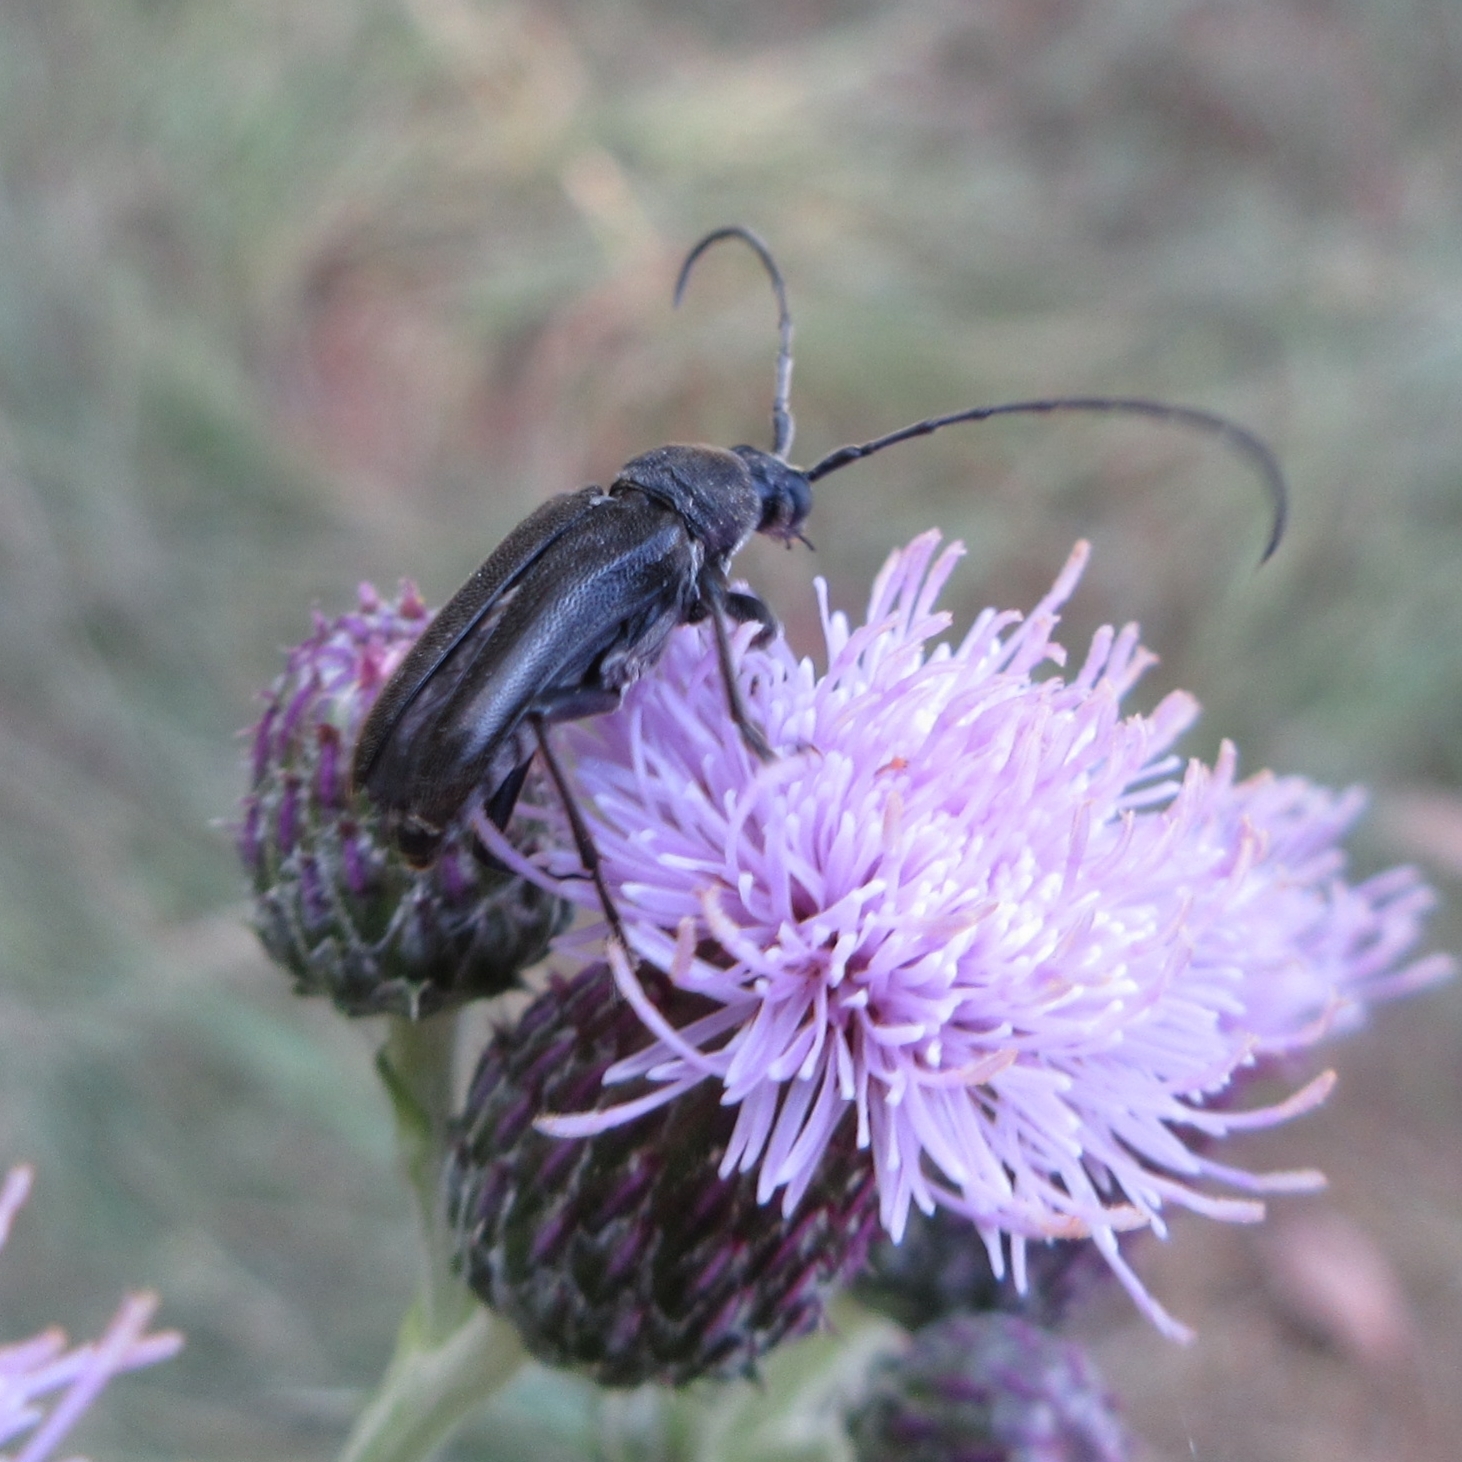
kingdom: Animalia
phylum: Arthropoda
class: Insecta
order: Coleoptera
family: Cerambycidae
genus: Lepturopsis
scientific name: Lepturopsis dolorosa
